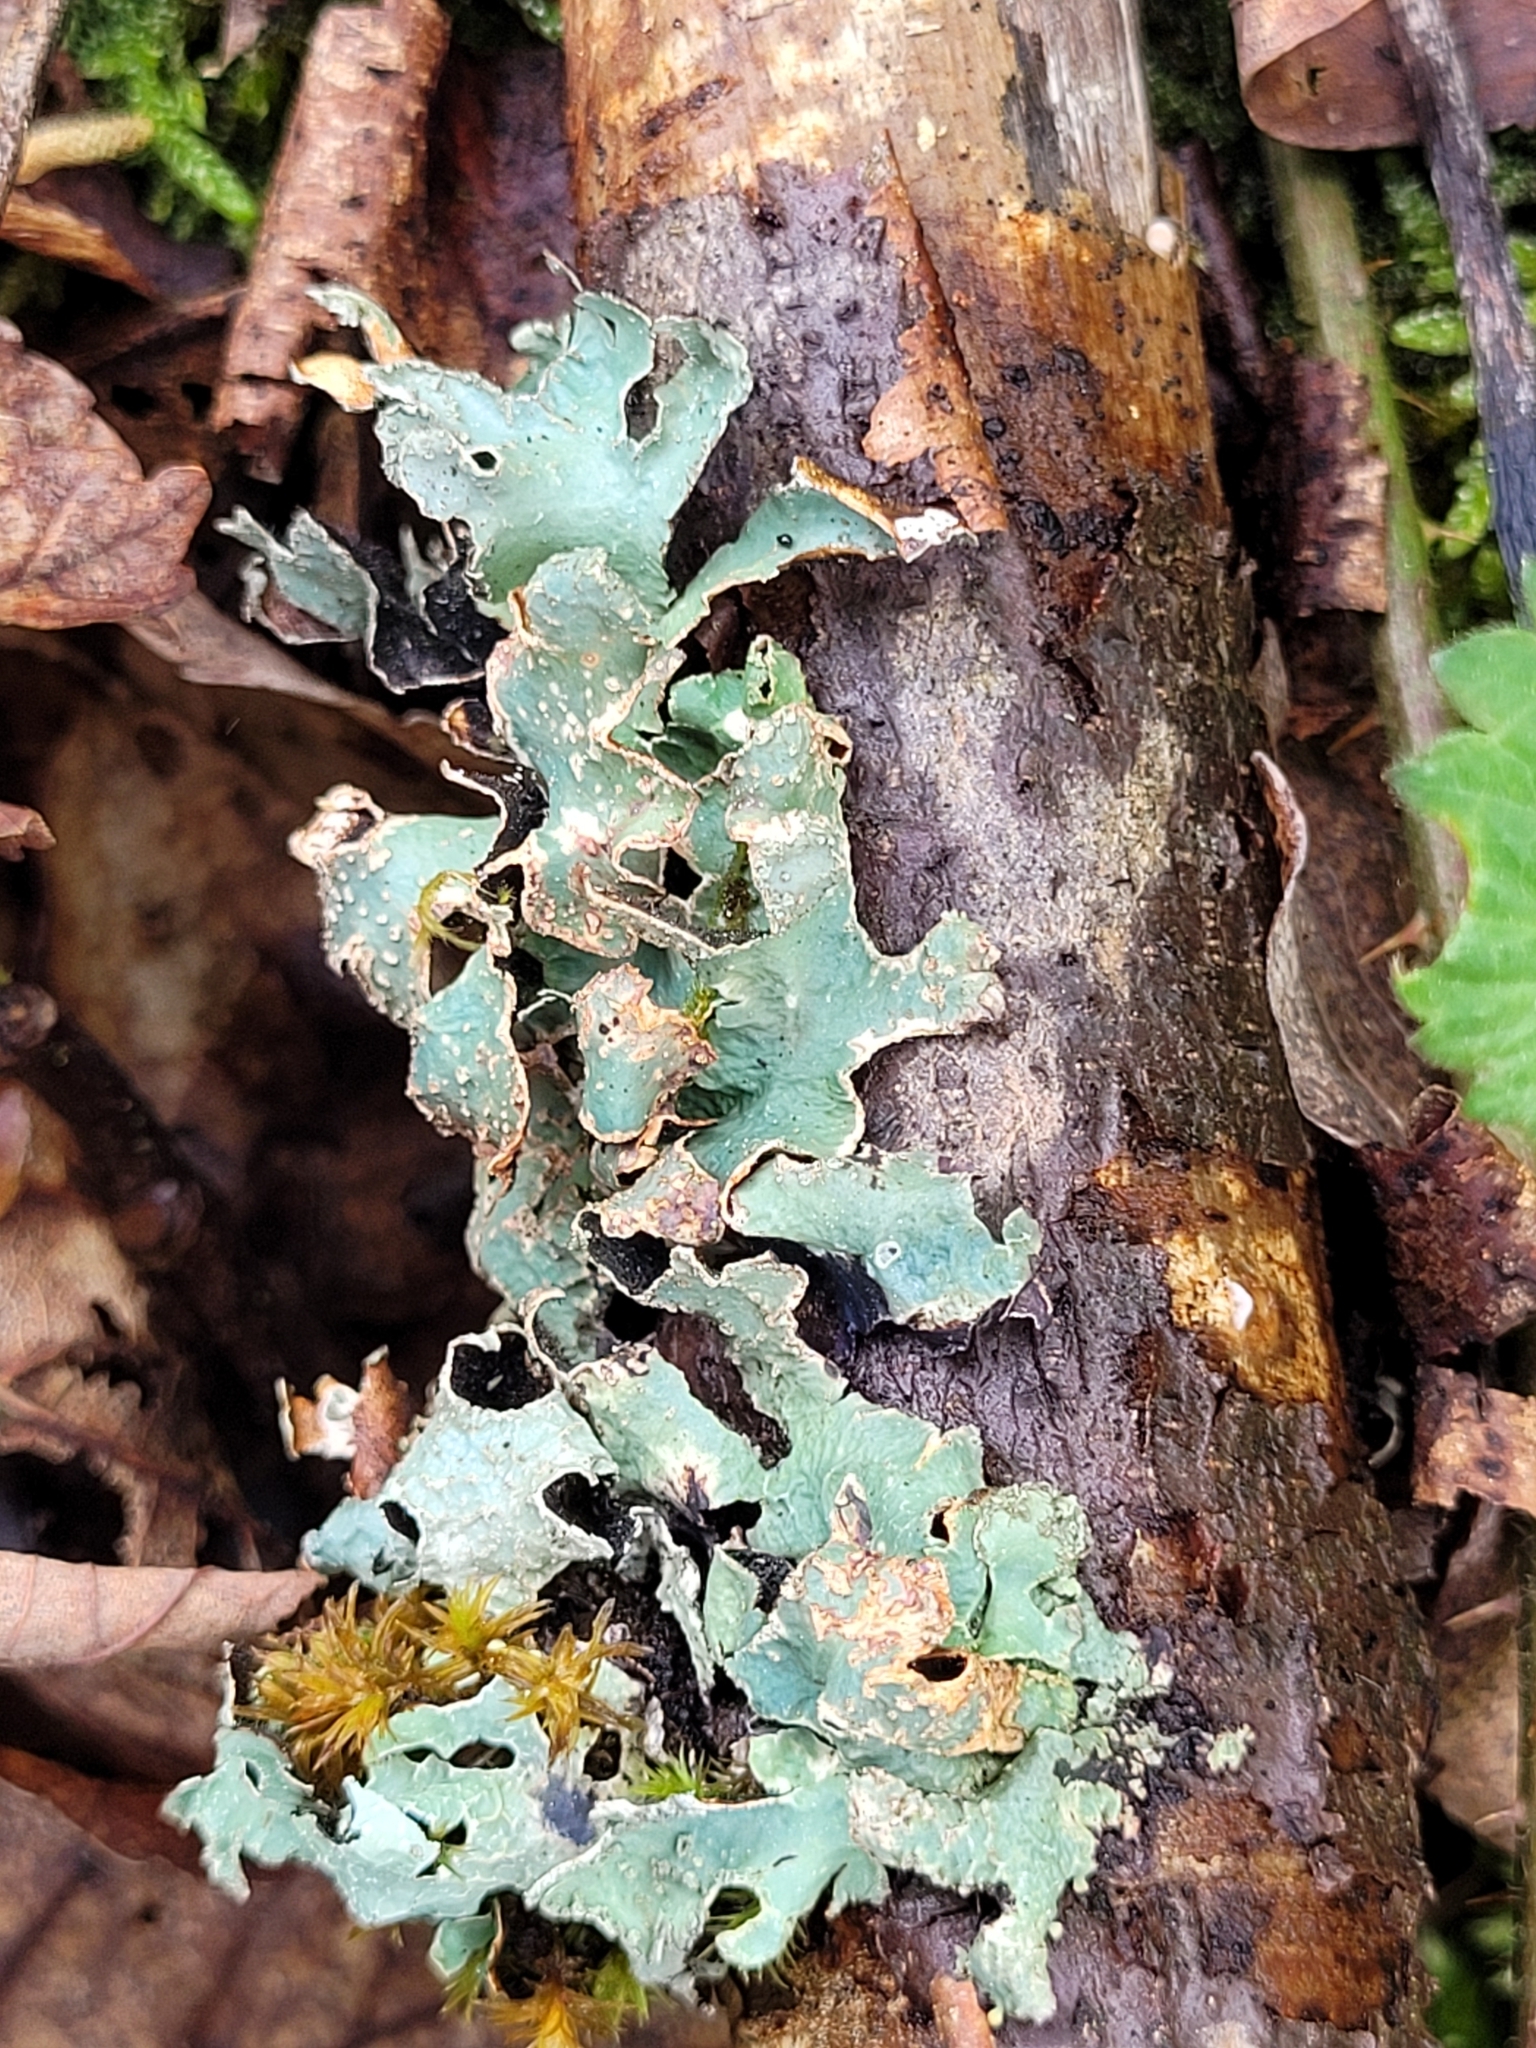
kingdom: Fungi
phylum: Ascomycota
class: Lecanoromycetes
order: Lecanorales
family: Parmeliaceae
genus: Parmelia
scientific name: Parmelia sulcata
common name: Netted shield lichen
